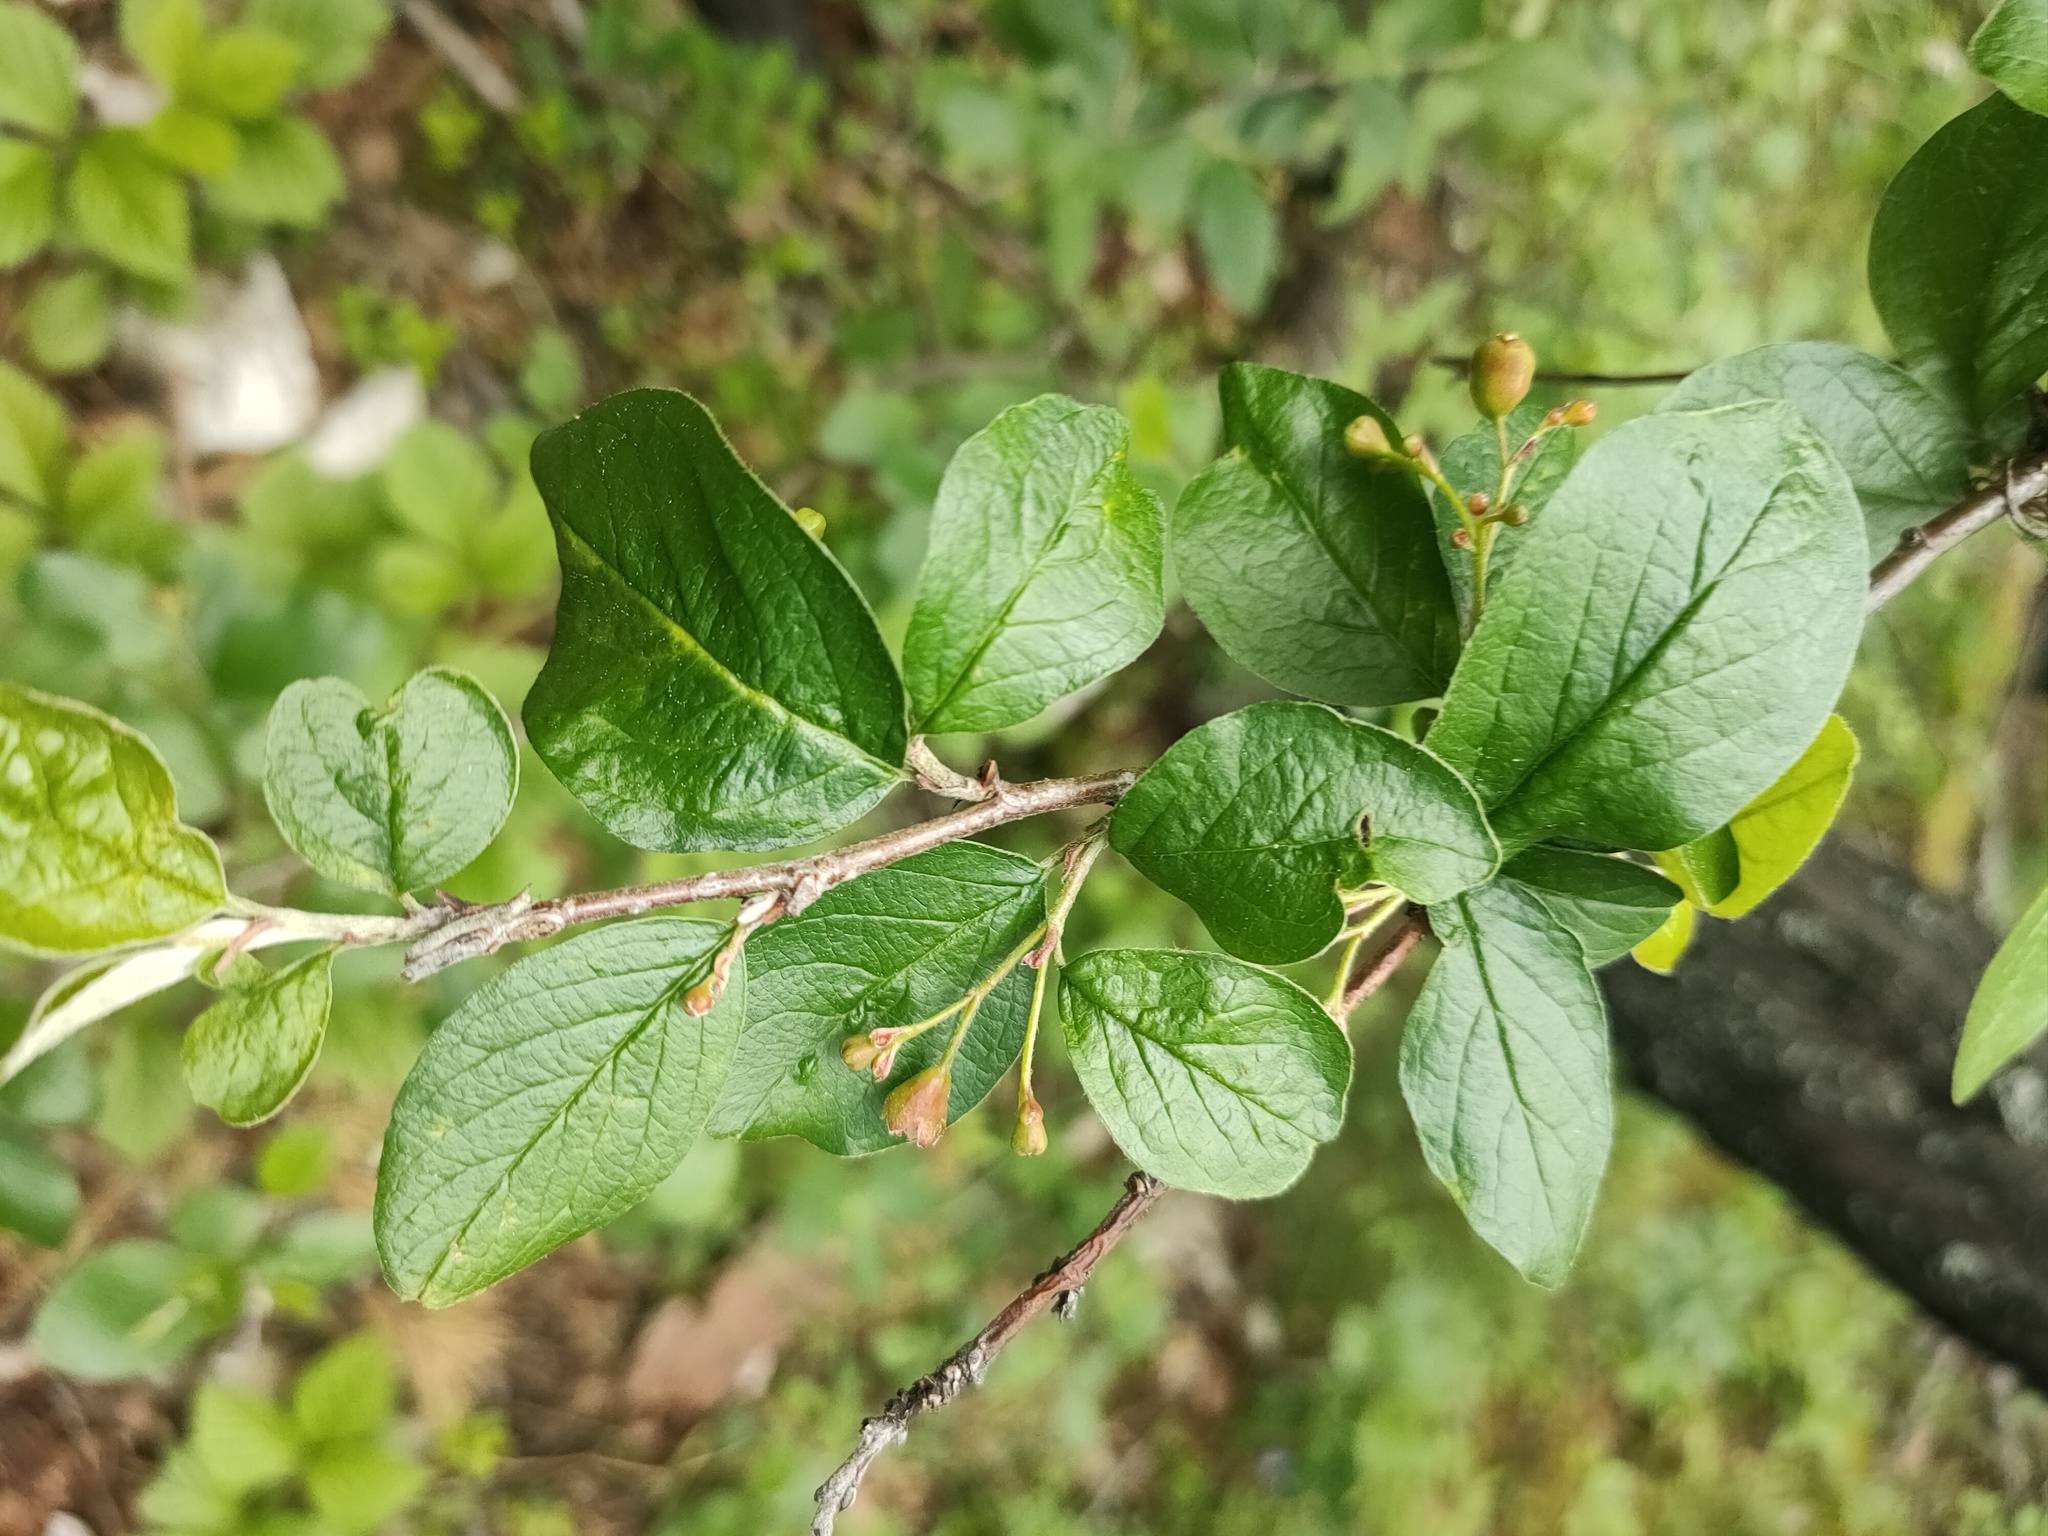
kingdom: Plantae
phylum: Tracheophyta
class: Magnoliopsida
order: Rosales
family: Rosaceae
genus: Cotoneaster
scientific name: Cotoneaster acutifolius
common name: Peking cotoneaster
